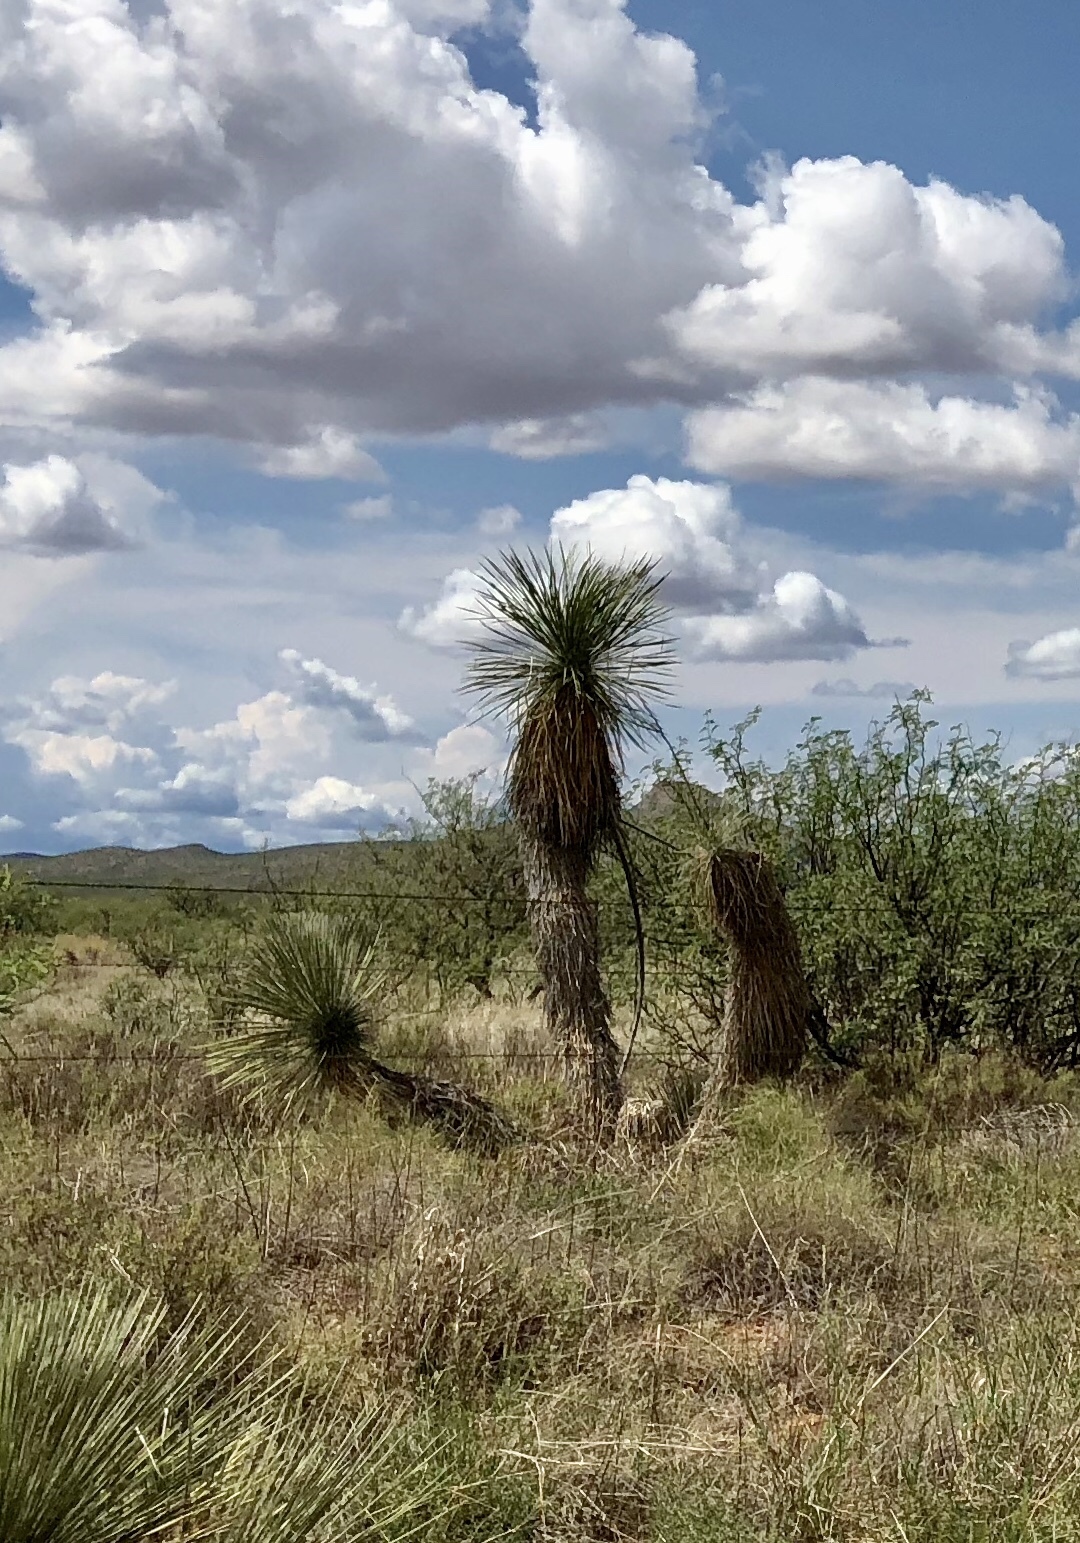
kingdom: Plantae
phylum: Tracheophyta
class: Liliopsida
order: Asparagales
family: Asparagaceae
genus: Yucca
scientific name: Yucca elata
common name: Palmella
